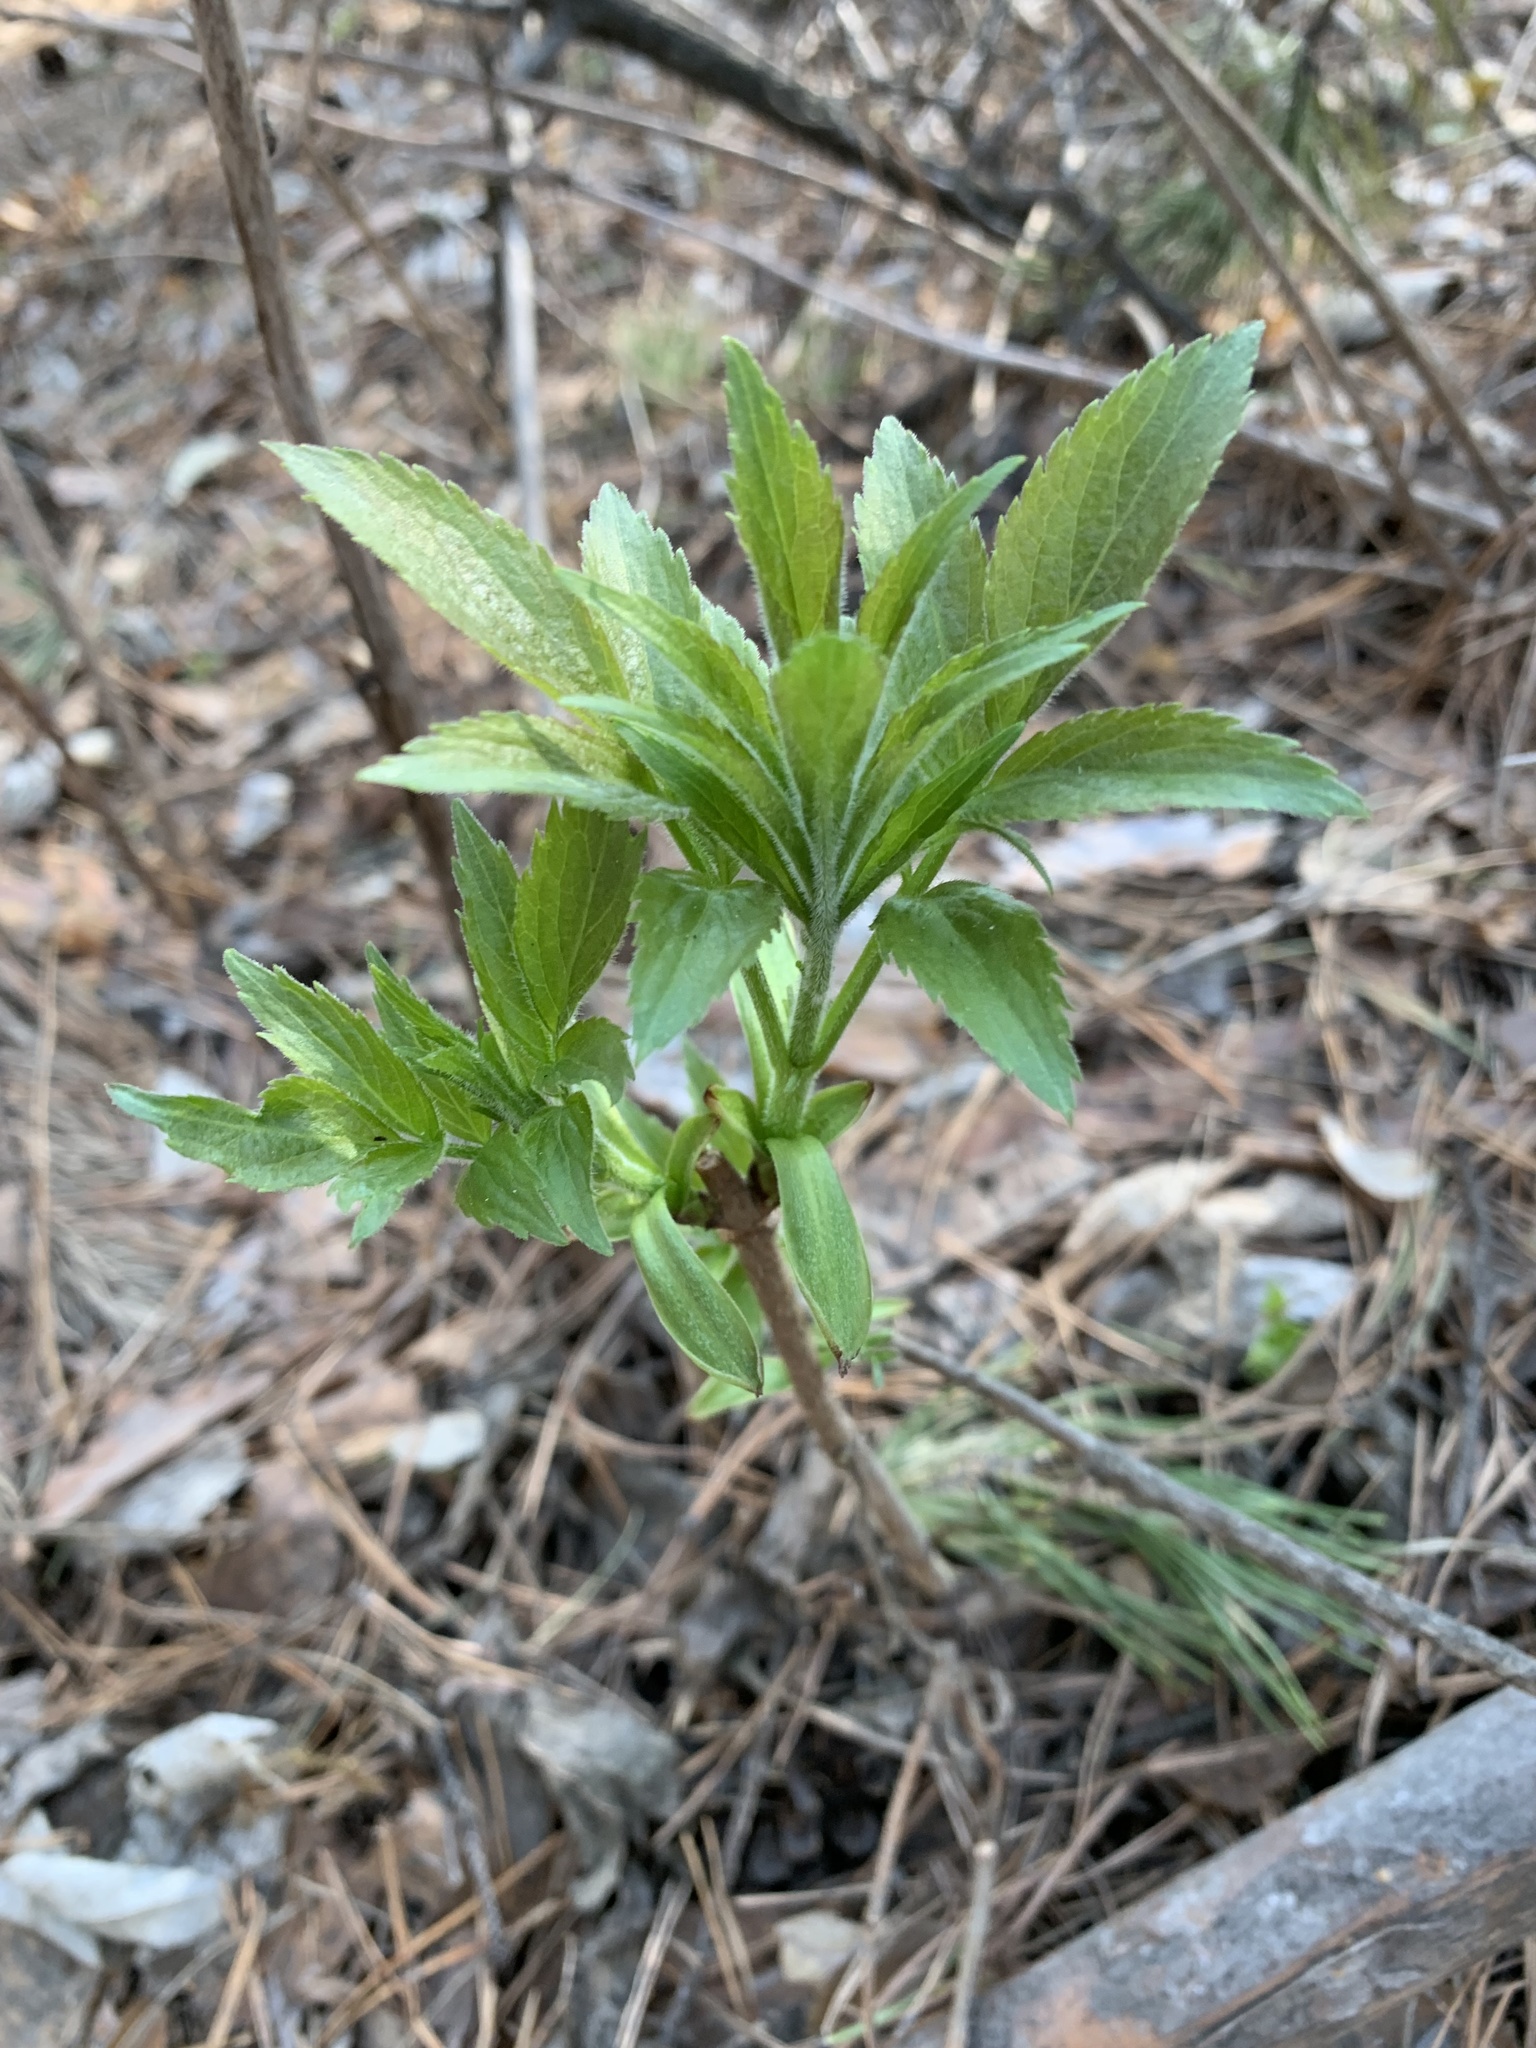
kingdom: Plantae
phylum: Tracheophyta
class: Magnoliopsida
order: Dipsacales
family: Viburnaceae
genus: Sambucus
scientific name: Sambucus sibirica
